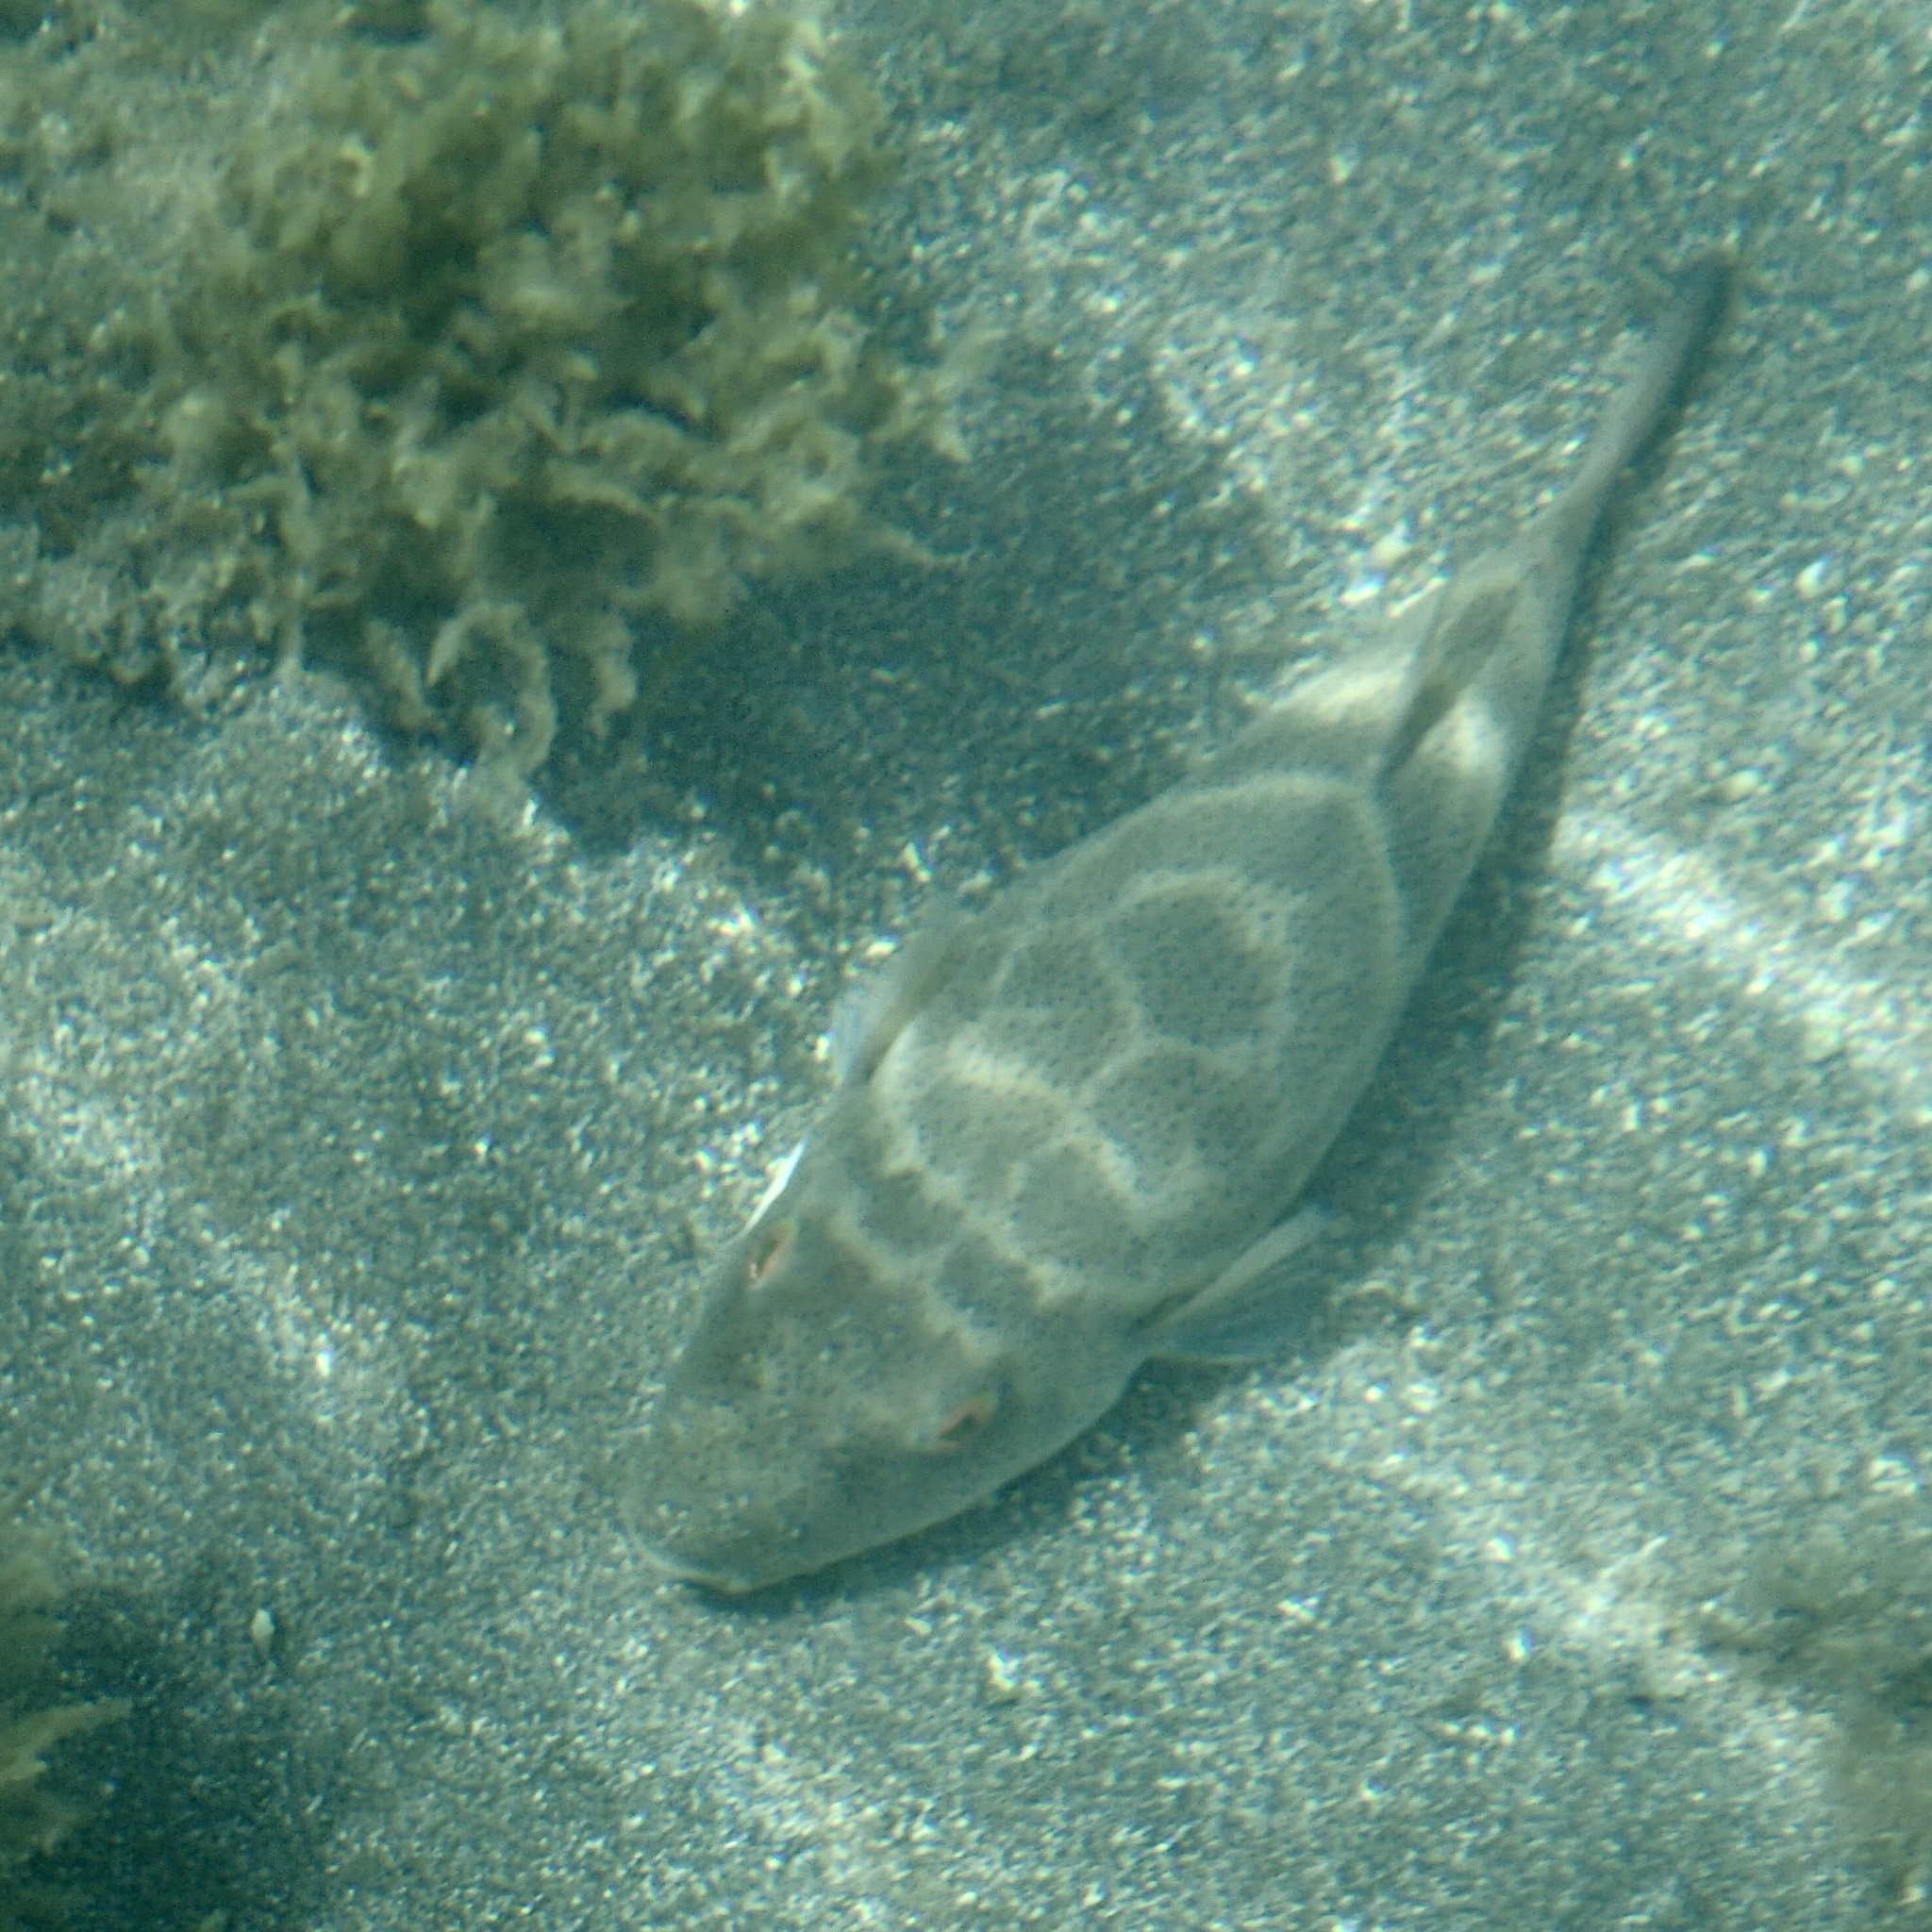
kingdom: Animalia
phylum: Chordata
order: Tetraodontiformes
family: Tetraodontidae
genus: Sphoeroides
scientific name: Sphoeroides annulatus
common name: Bullseye puffer
